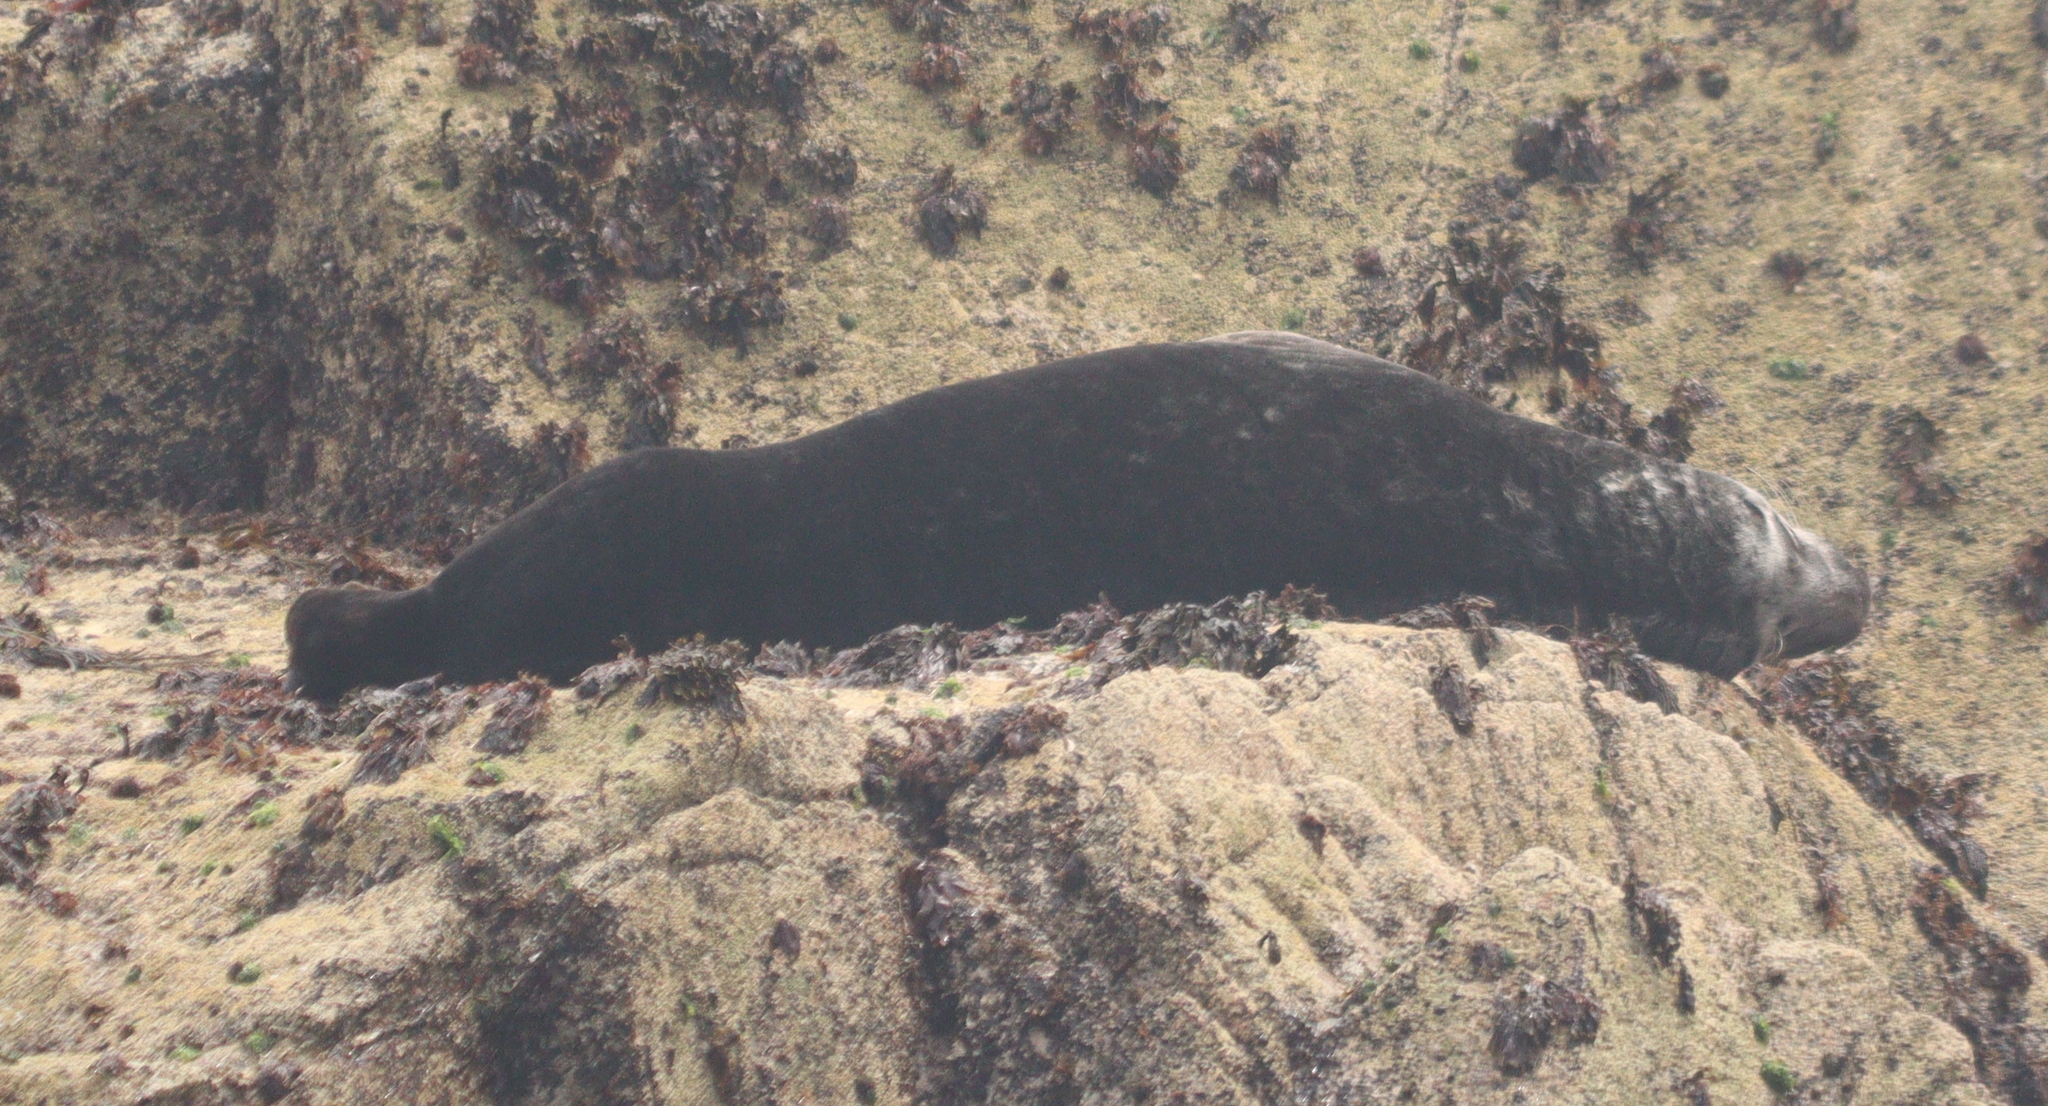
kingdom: Animalia
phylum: Chordata
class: Mammalia
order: Carnivora
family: Phocidae
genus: Halichoerus
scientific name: Halichoerus grypus
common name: Grey seal
